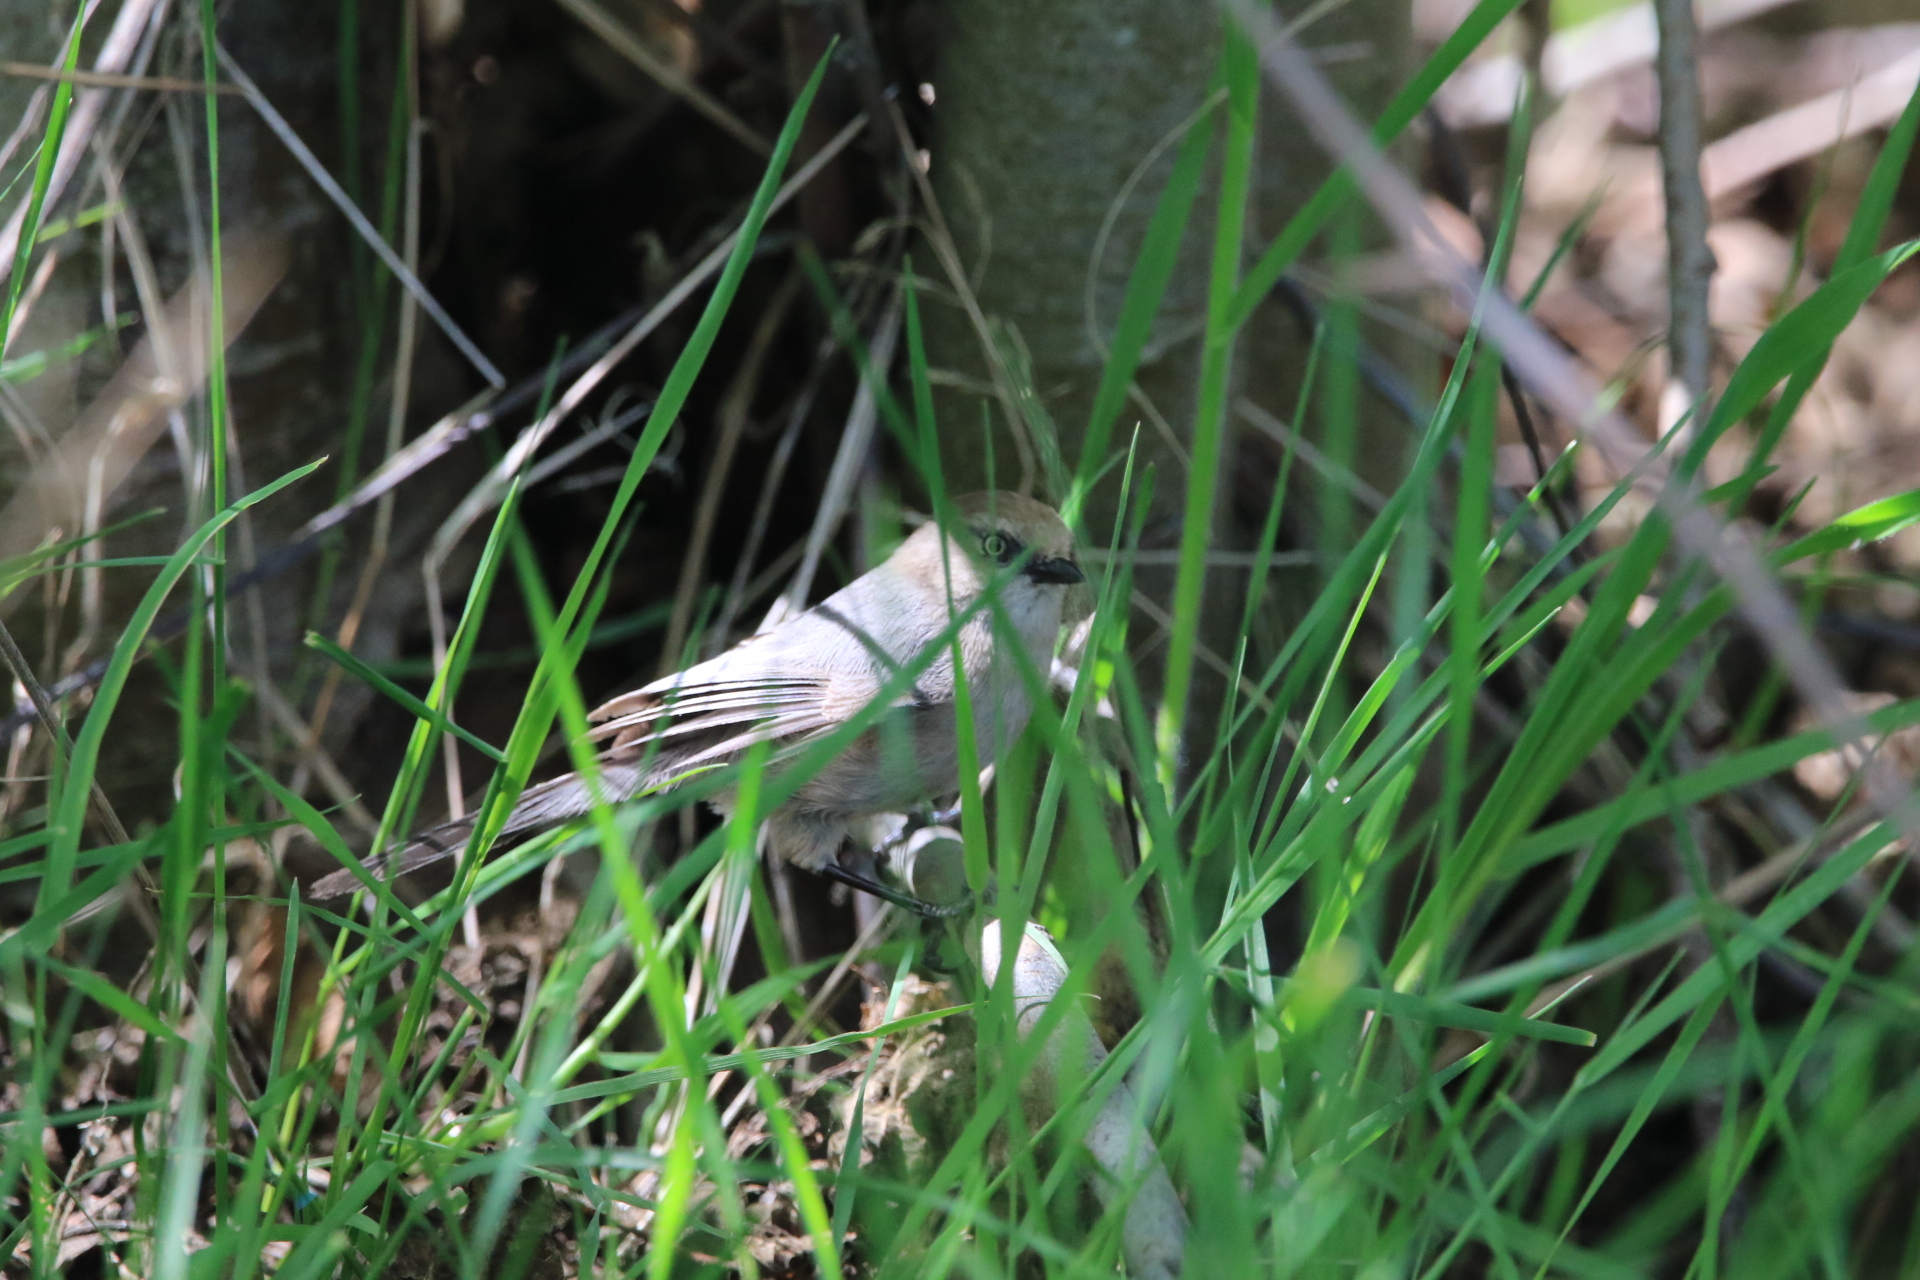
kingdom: Animalia
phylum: Chordata
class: Aves
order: Passeriformes
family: Aegithalidae
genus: Psaltriparus
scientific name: Psaltriparus minimus
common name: American bushtit
